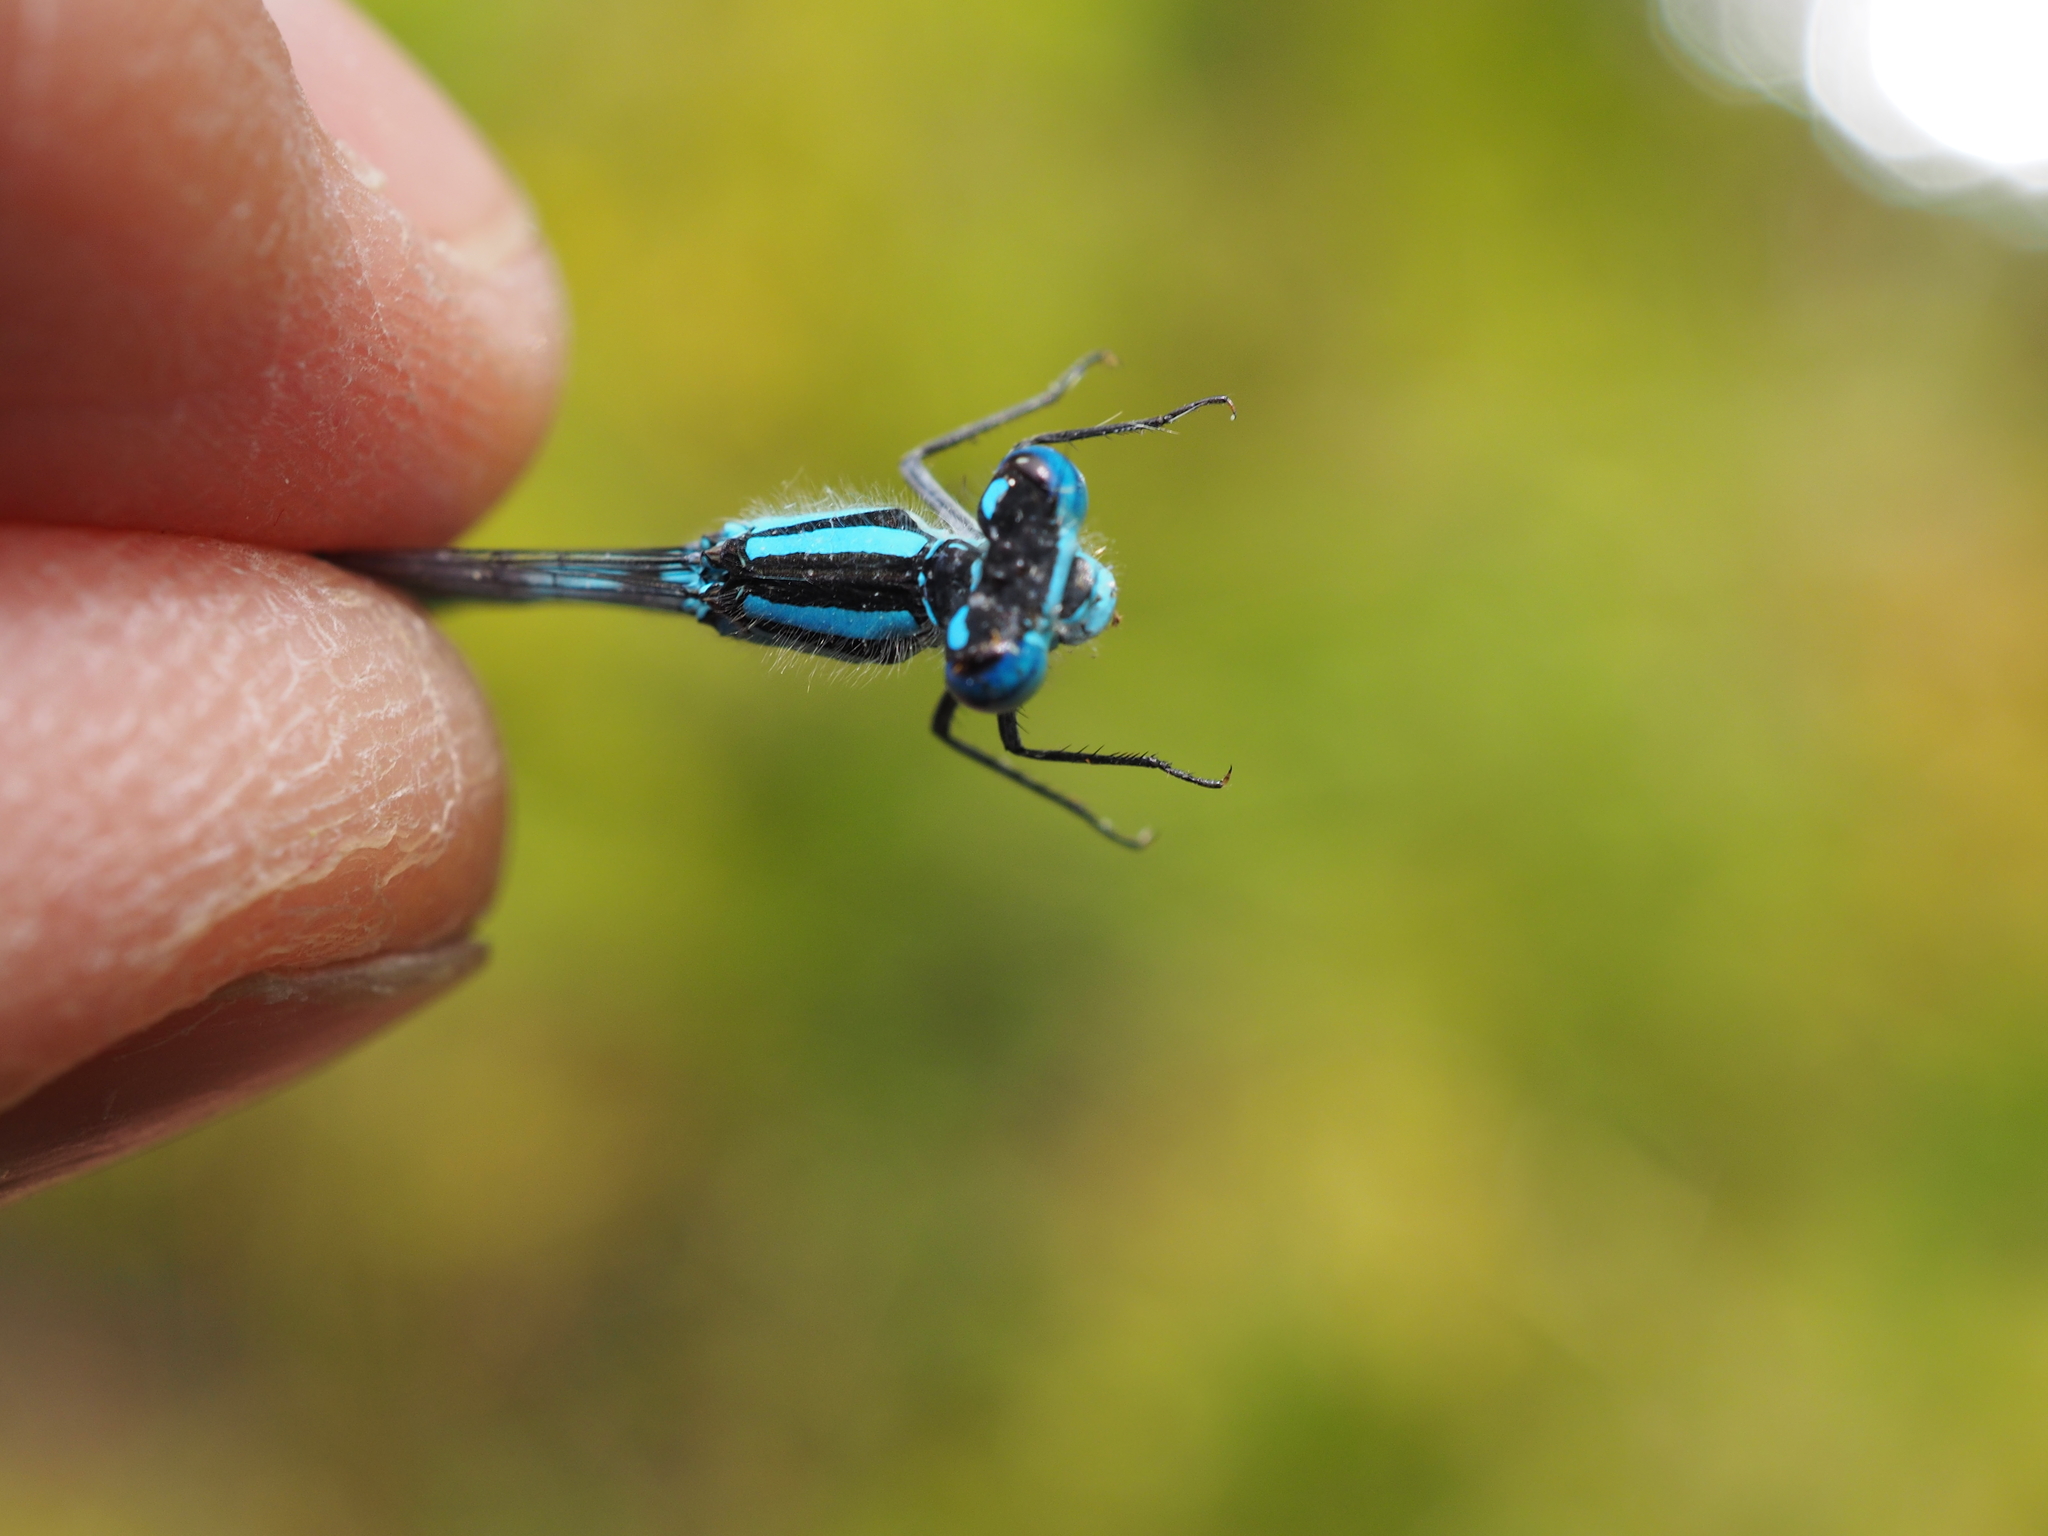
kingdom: Animalia
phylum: Arthropoda
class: Insecta
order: Odonata
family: Coenagrionidae
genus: Enallagma
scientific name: Enallagma cyathigerum
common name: Common blue damselfly
